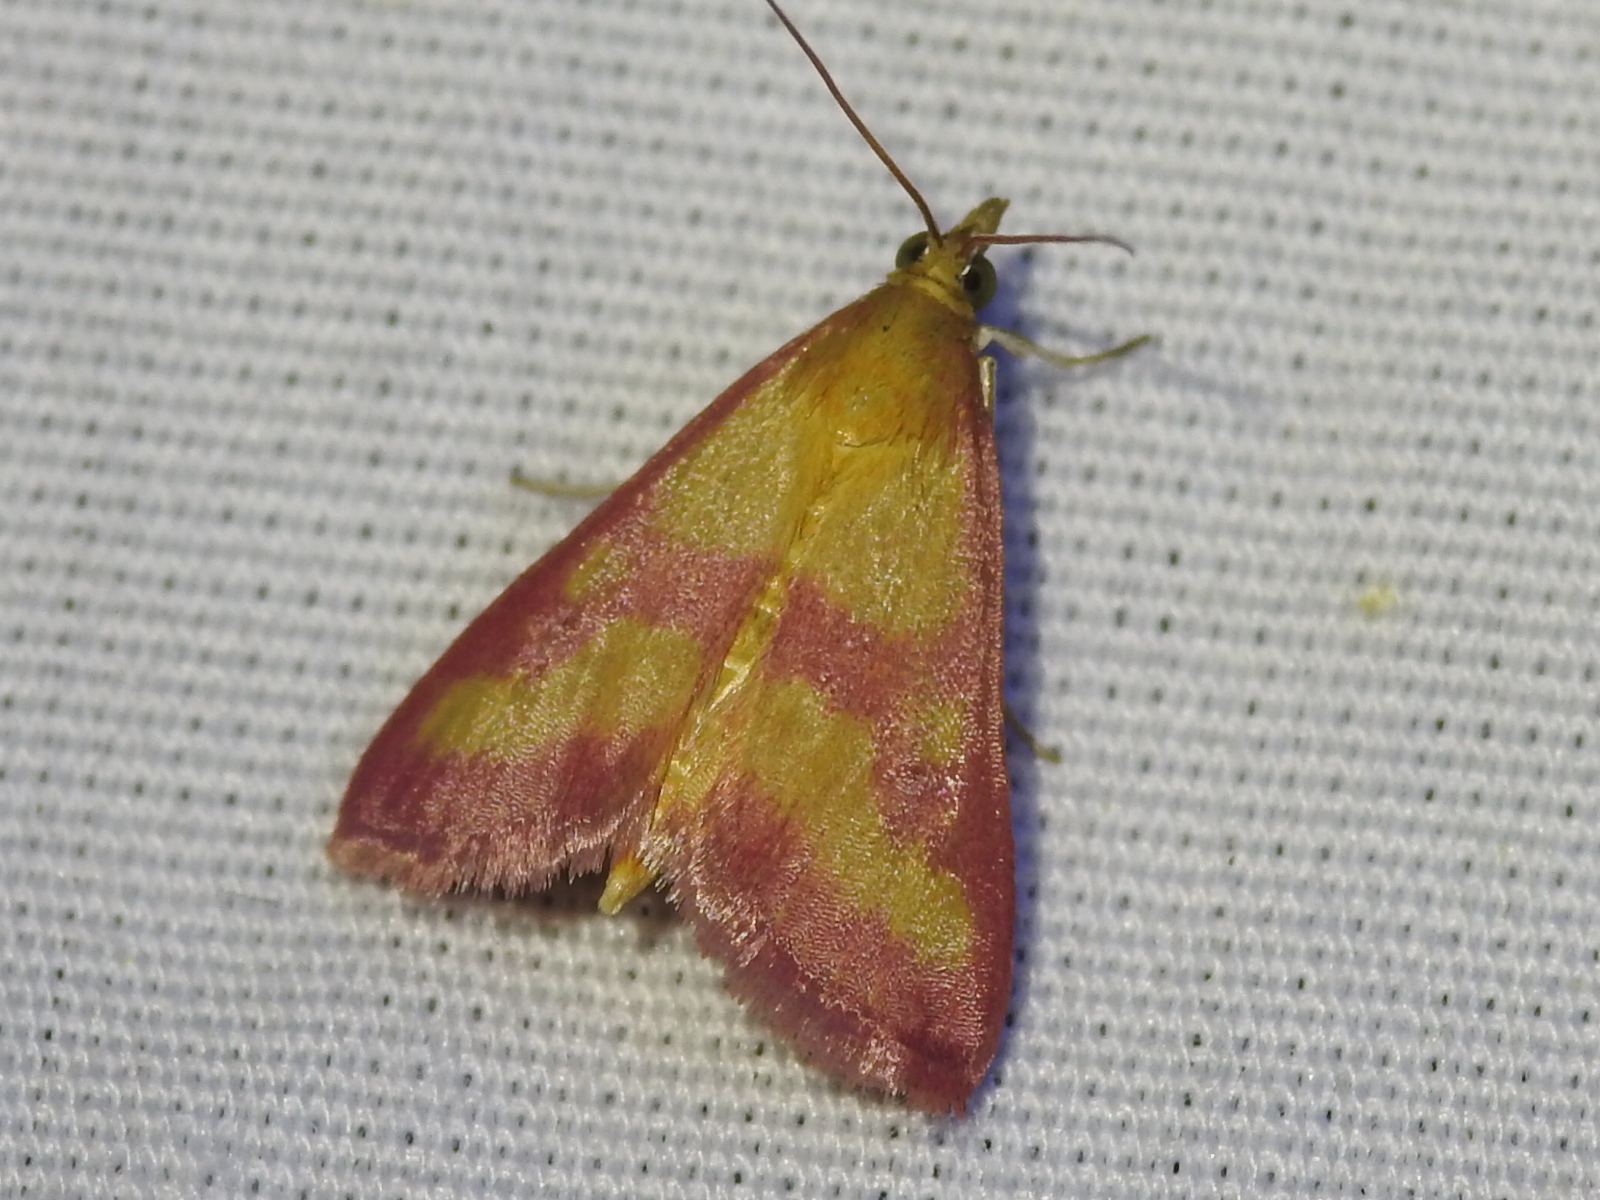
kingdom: Animalia
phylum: Arthropoda
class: Insecta
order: Lepidoptera
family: Crambidae
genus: Pyrausta
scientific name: Pyrausta laticlavia
